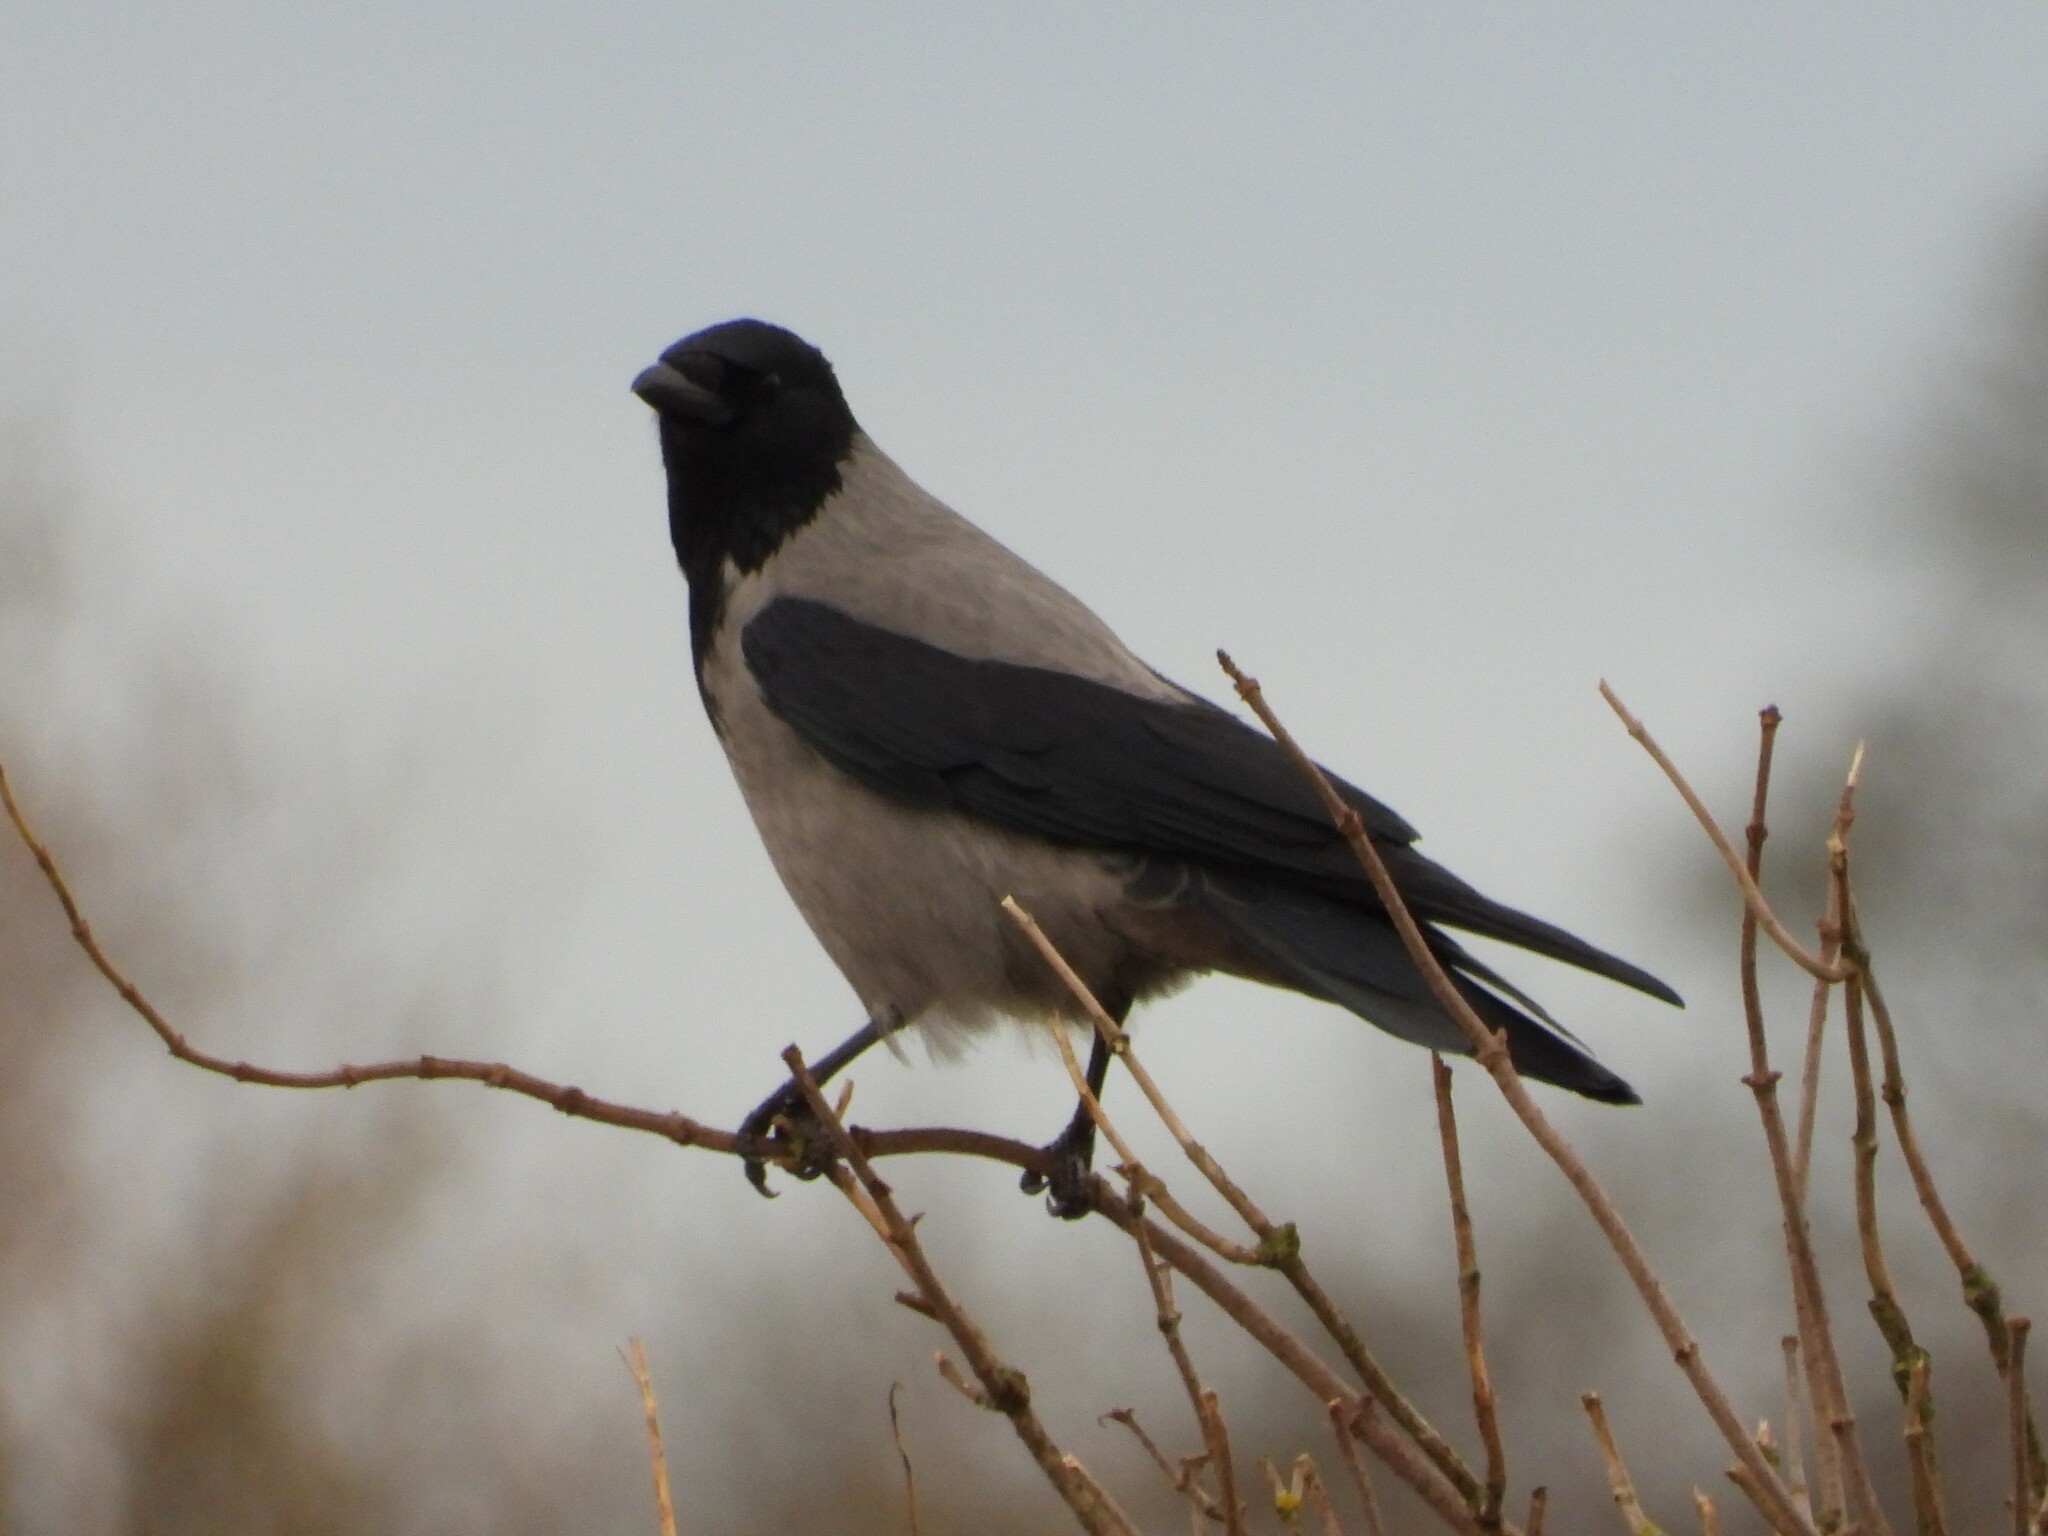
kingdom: Animalia
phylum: Chordata
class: Aves
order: Passeriformes
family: Corvidae
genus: Corvus
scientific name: Corvus cornix
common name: Hooded crow
